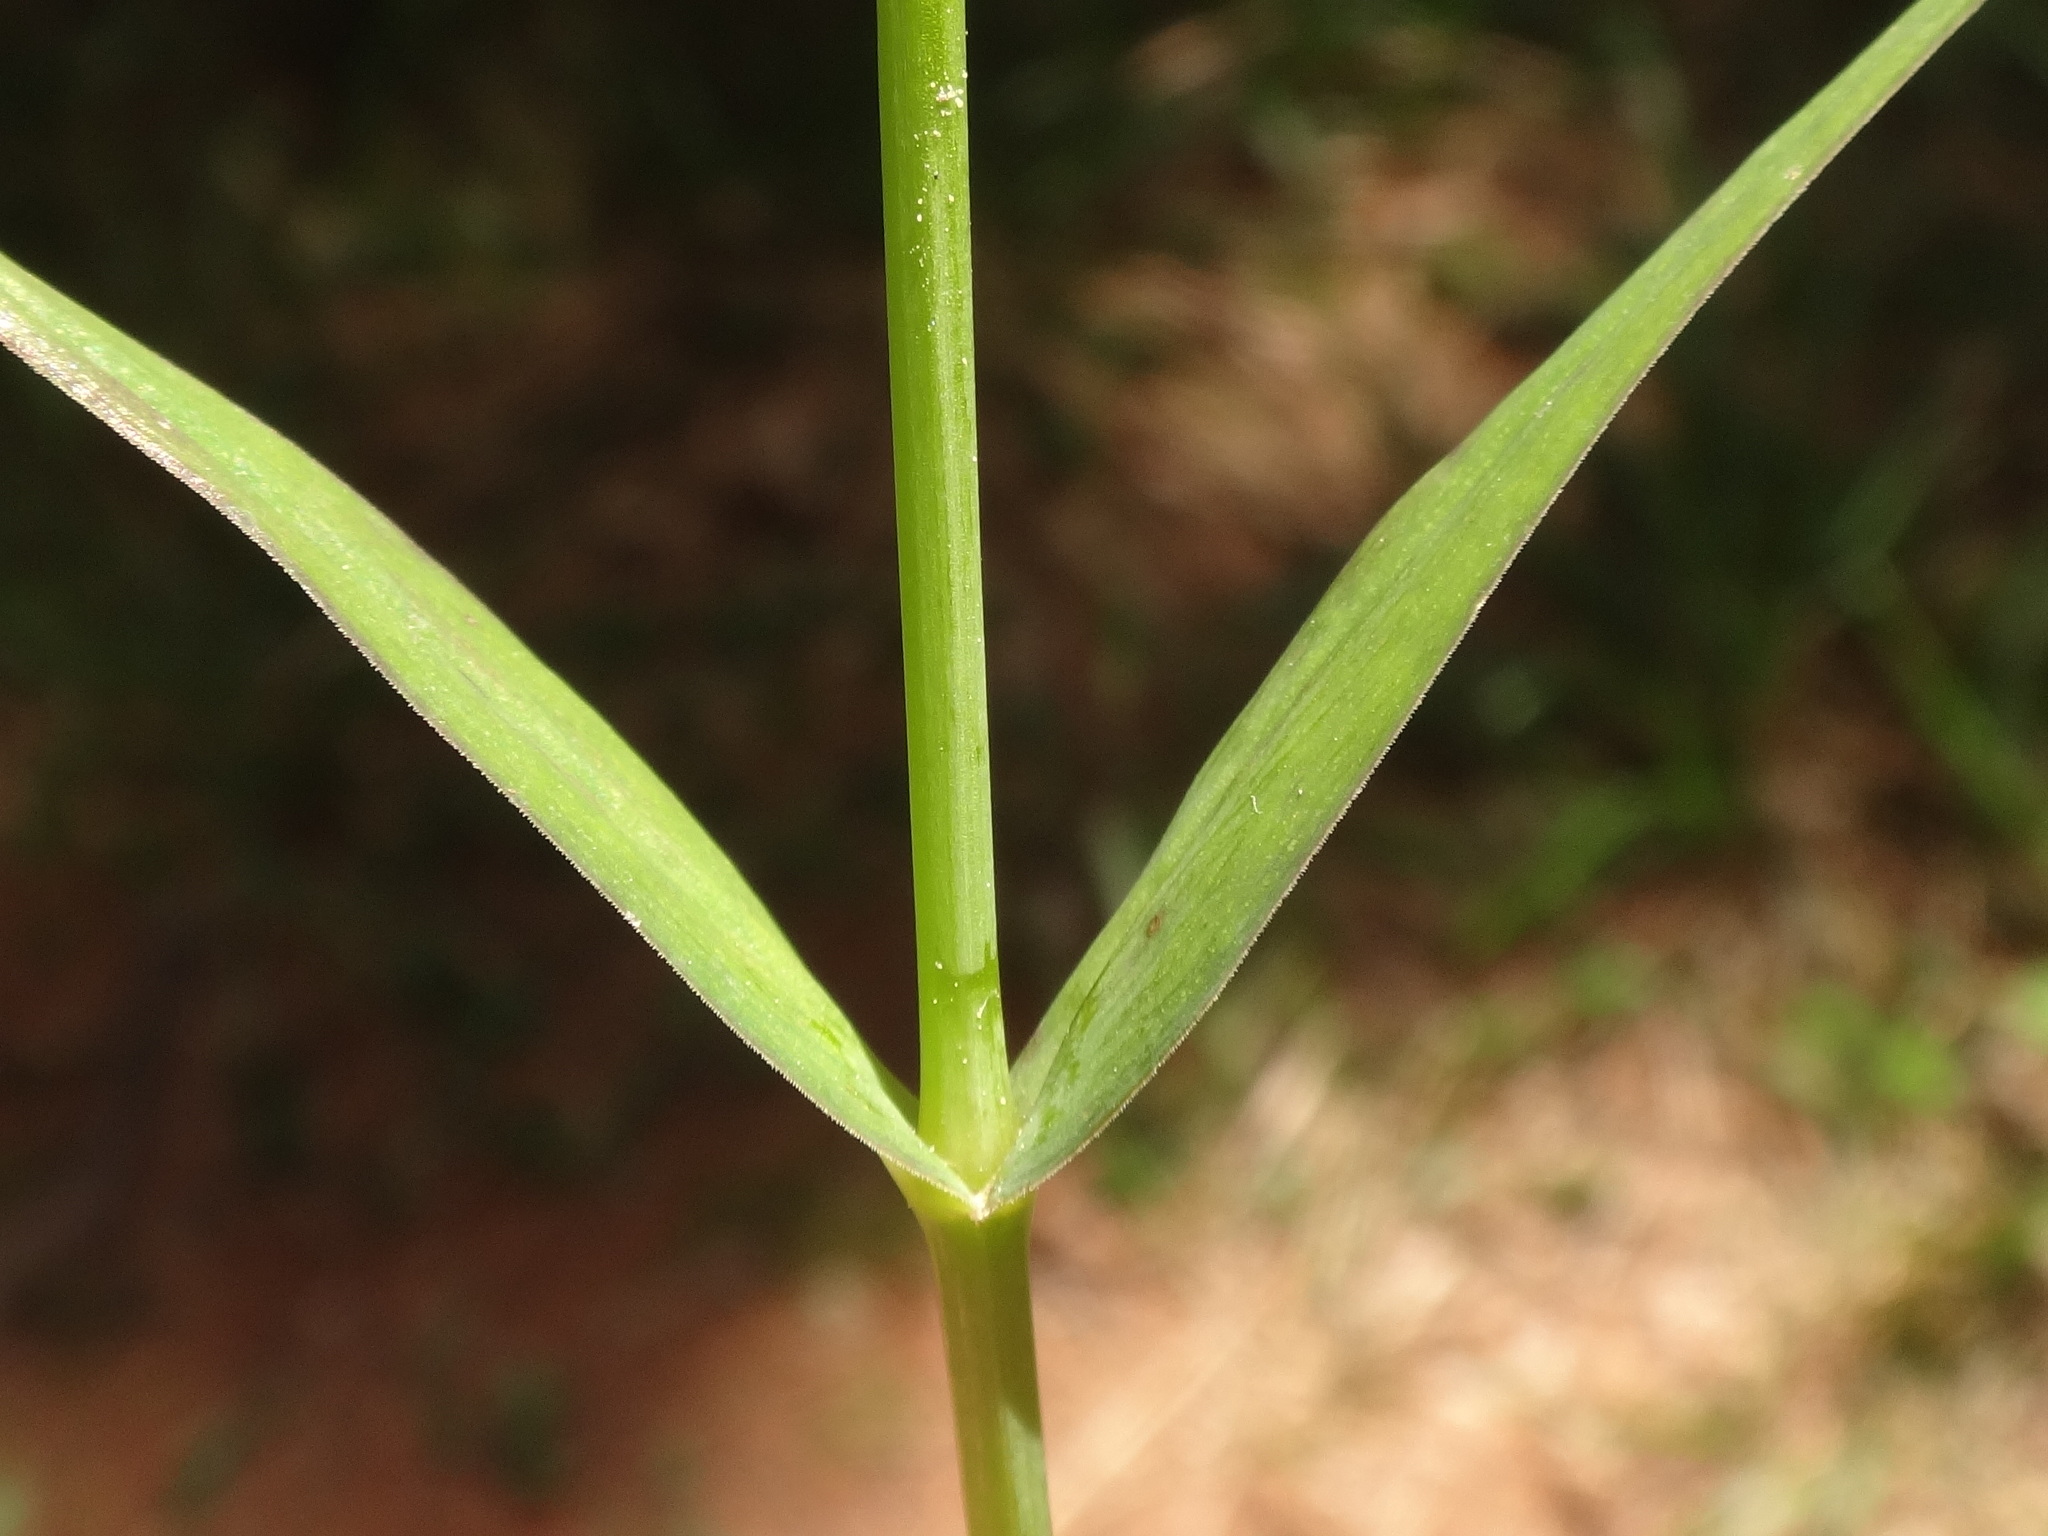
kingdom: Plantae
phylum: Tracheophyta
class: Magnoliopsida
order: Caryophyllales
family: Caryophyllaceae
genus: Rabelera
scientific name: Rabelera holostea
